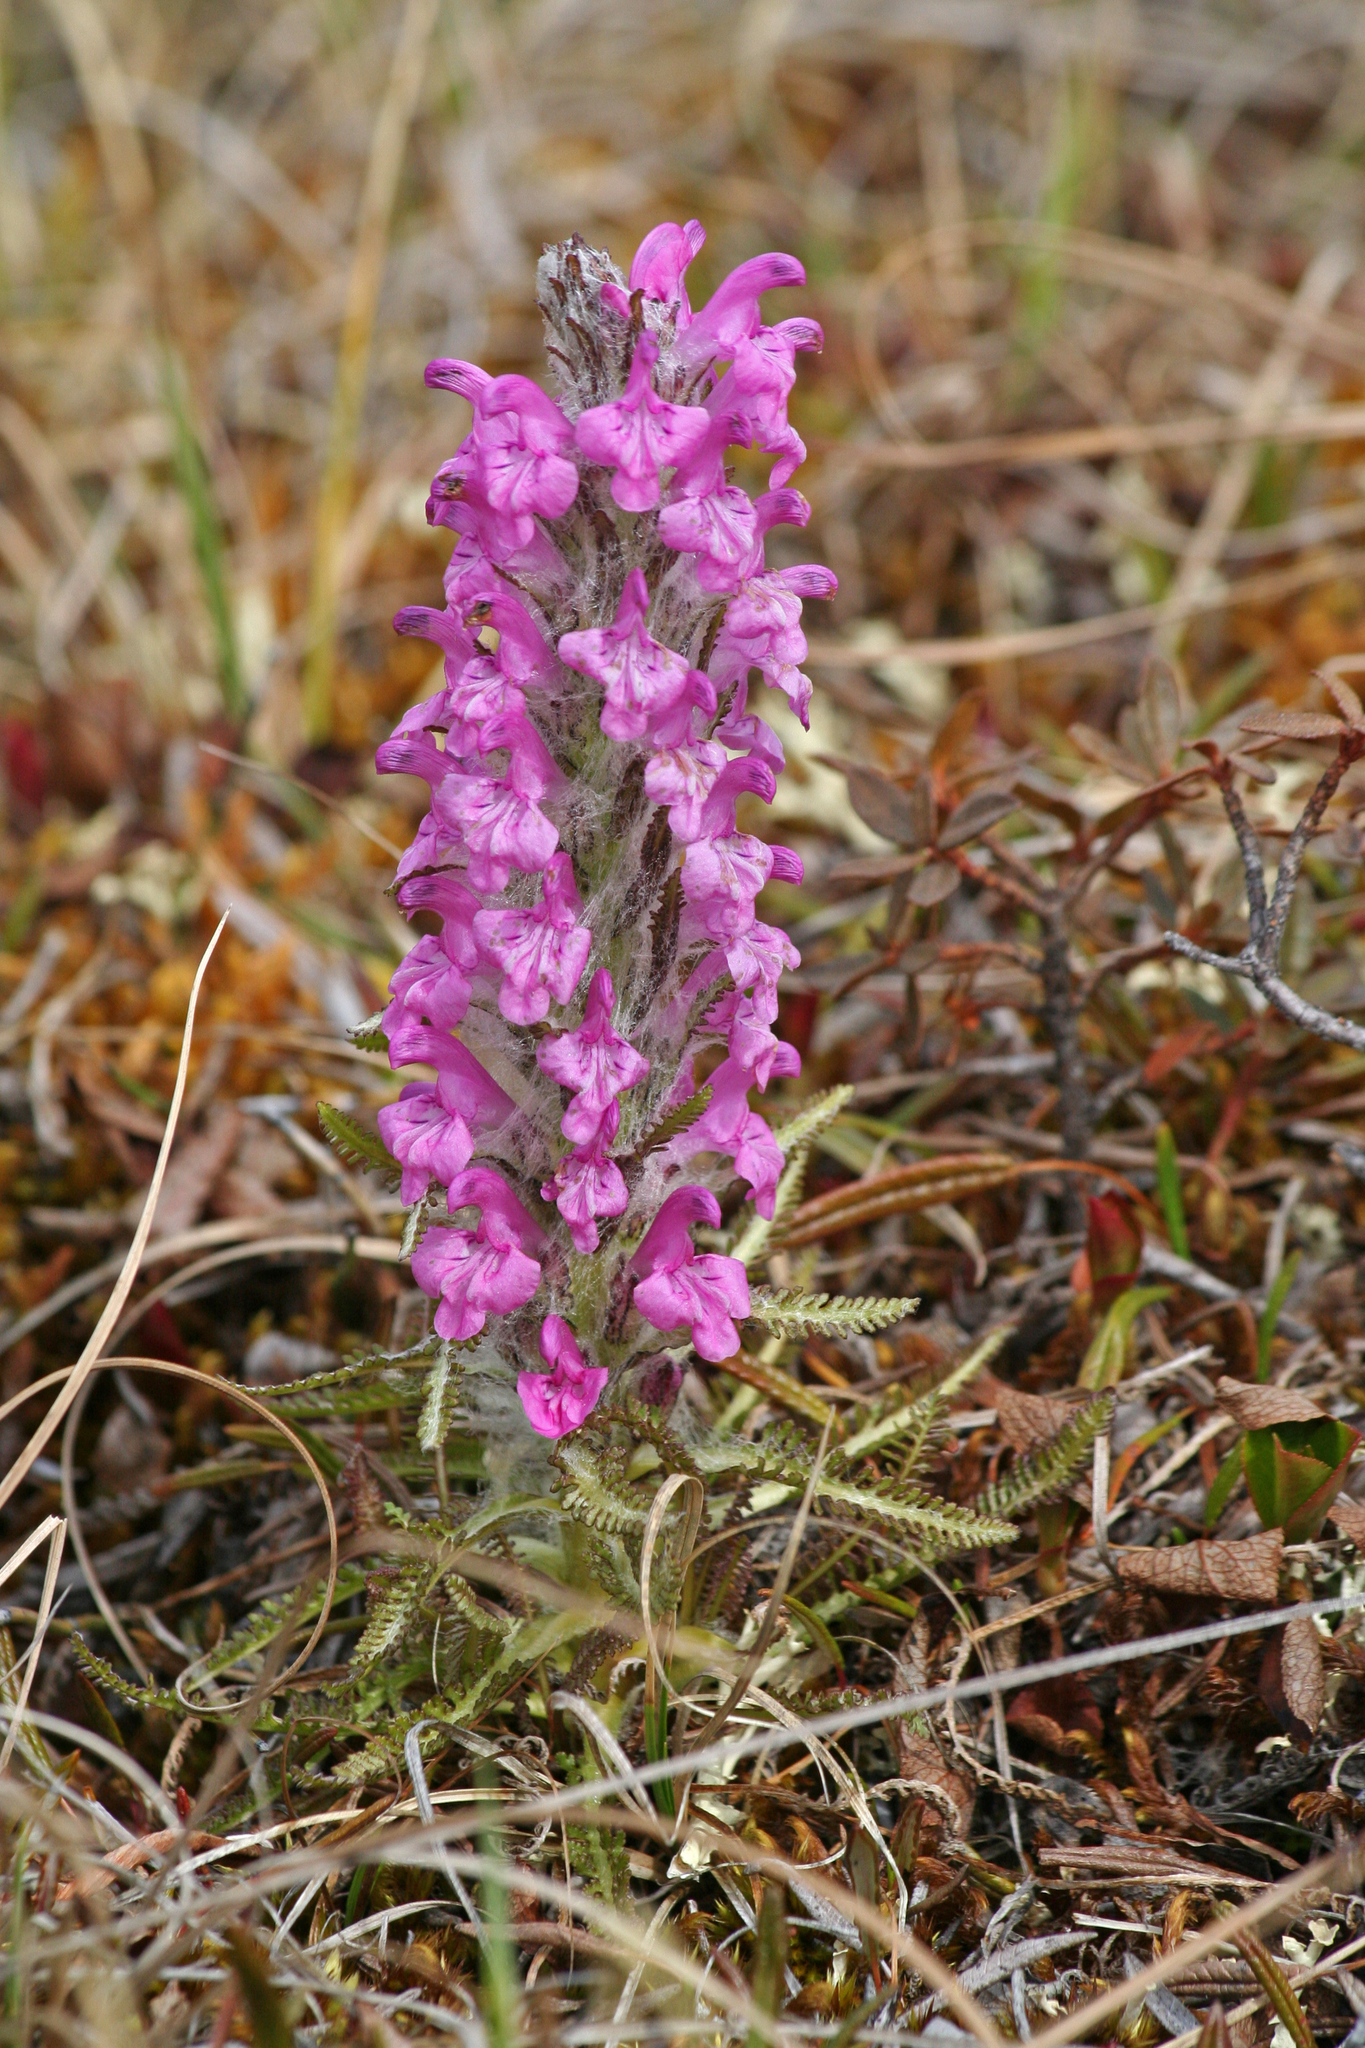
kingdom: Plantae
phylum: Tracheophyta
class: Magnoliopsida
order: Lamiales
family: Orobanchaceae
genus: Pedicularis
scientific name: Pedicularis lanata
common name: Woolly lousewort
